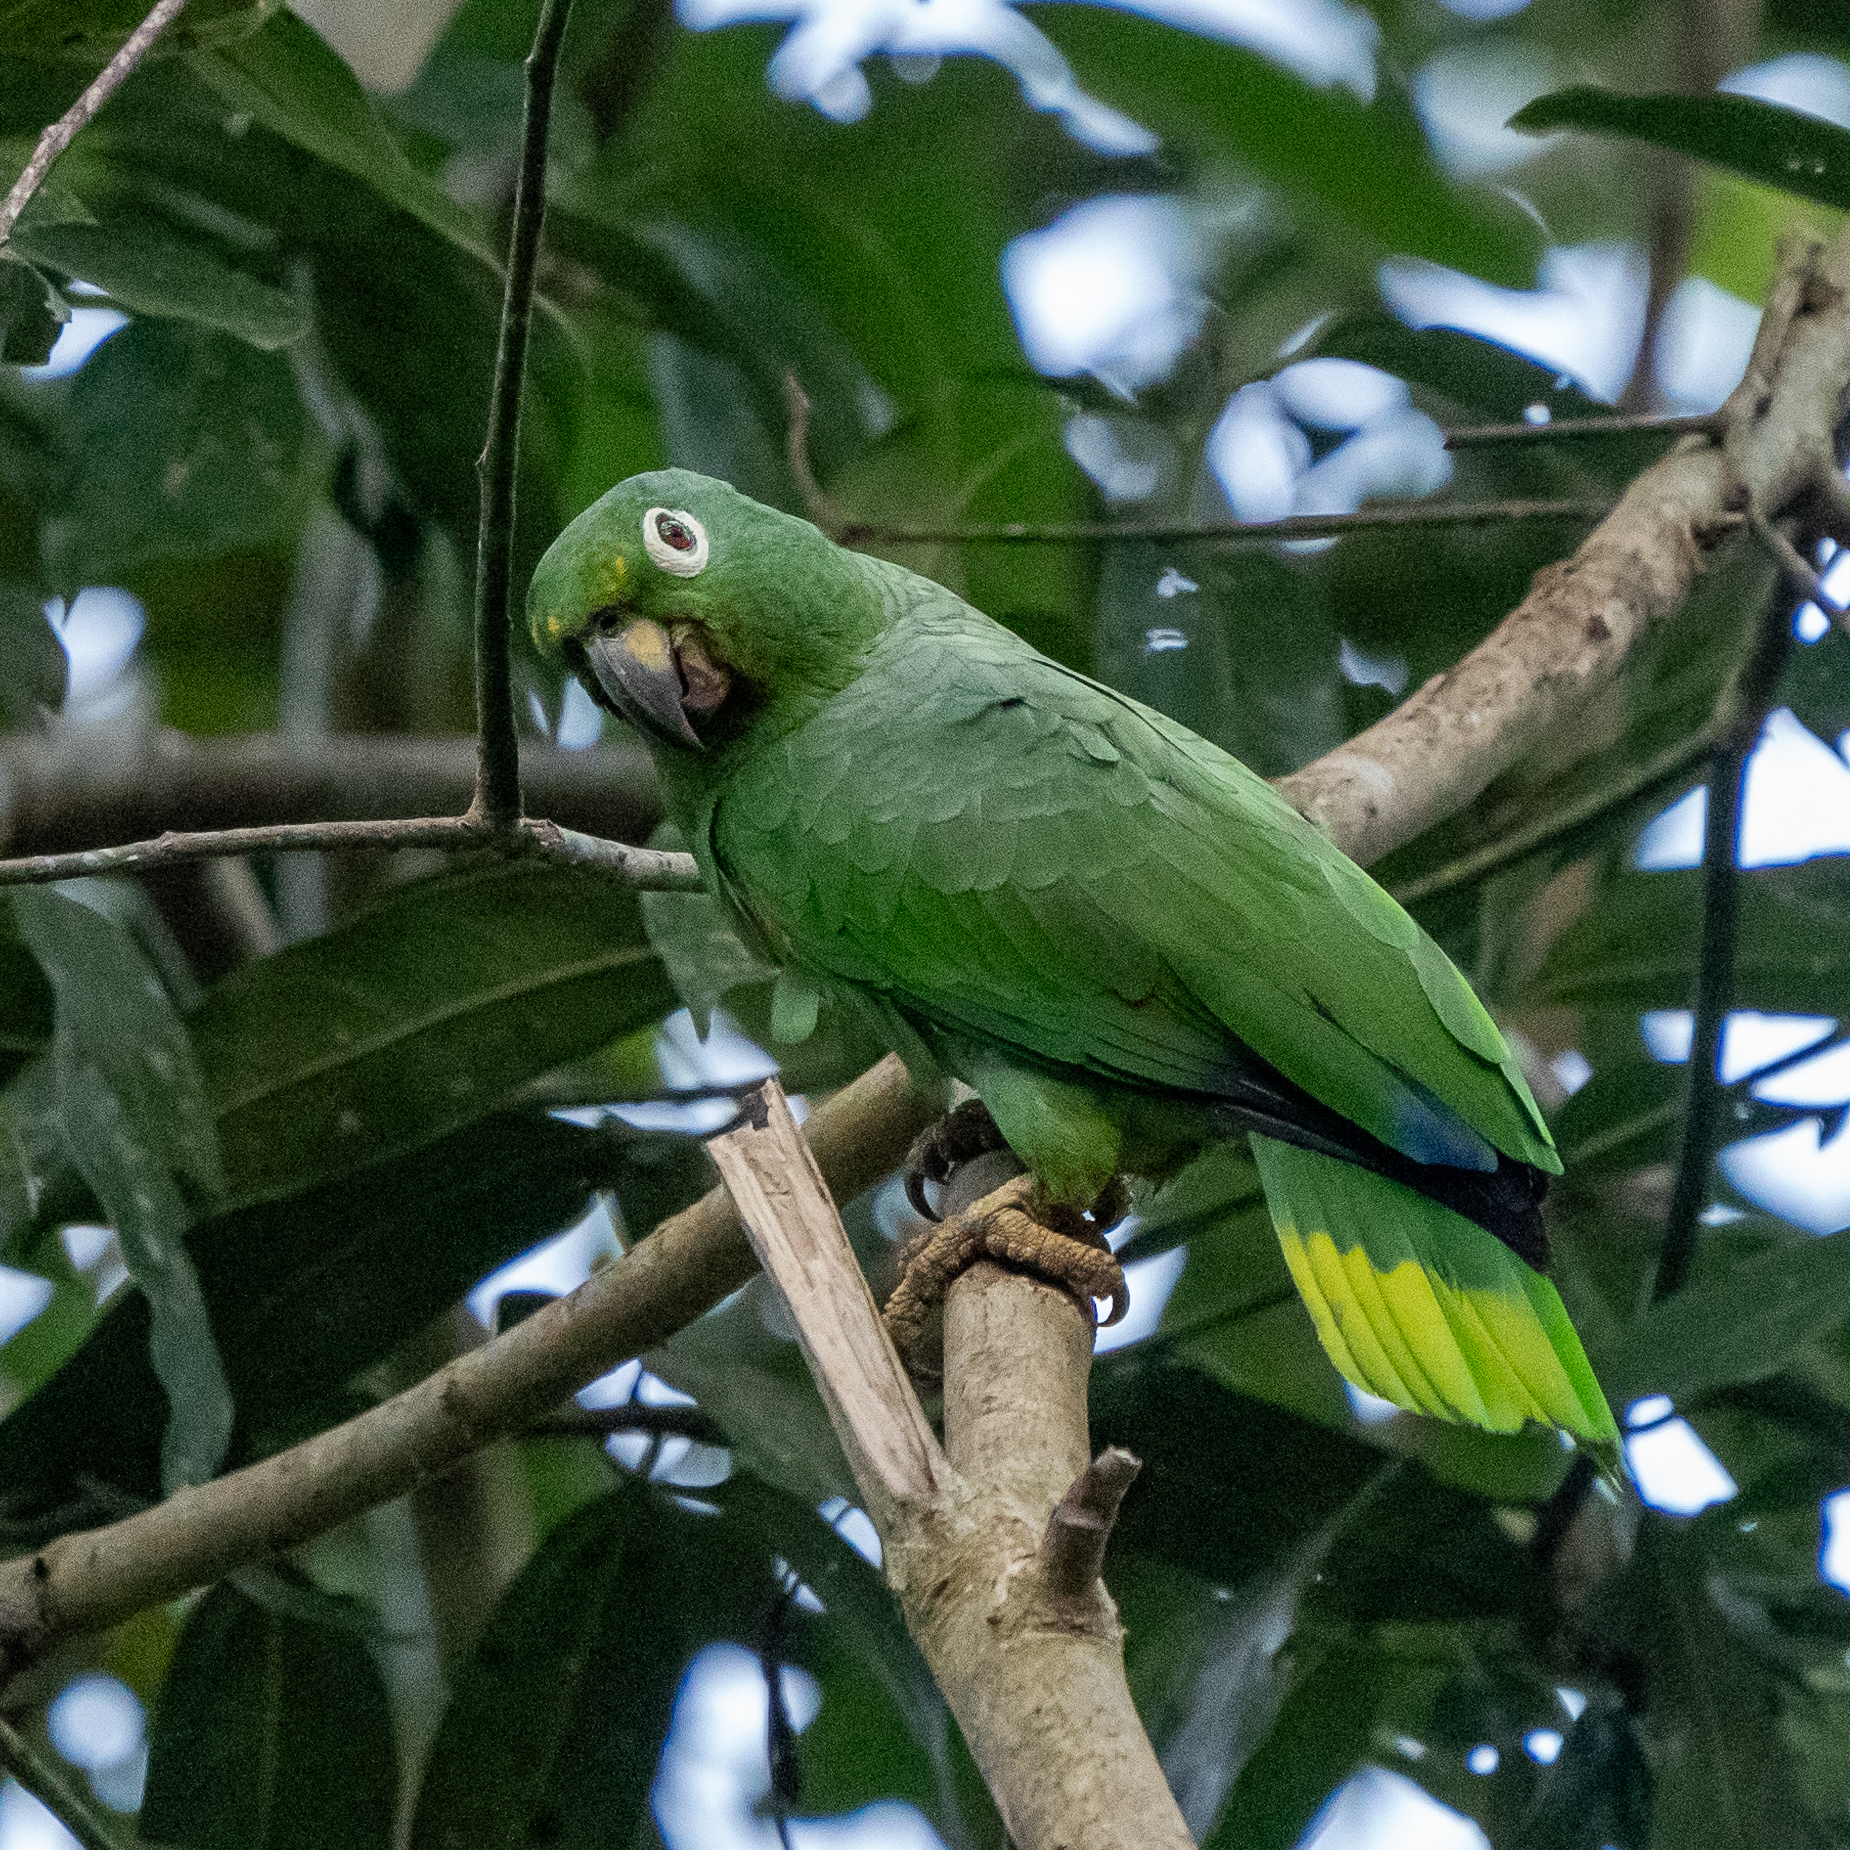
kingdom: Animalia
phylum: Chordata
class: Aves
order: Psittaciformes
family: Psittacidae
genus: Amazona
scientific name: Amazona farinosa
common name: Mealy parrot
